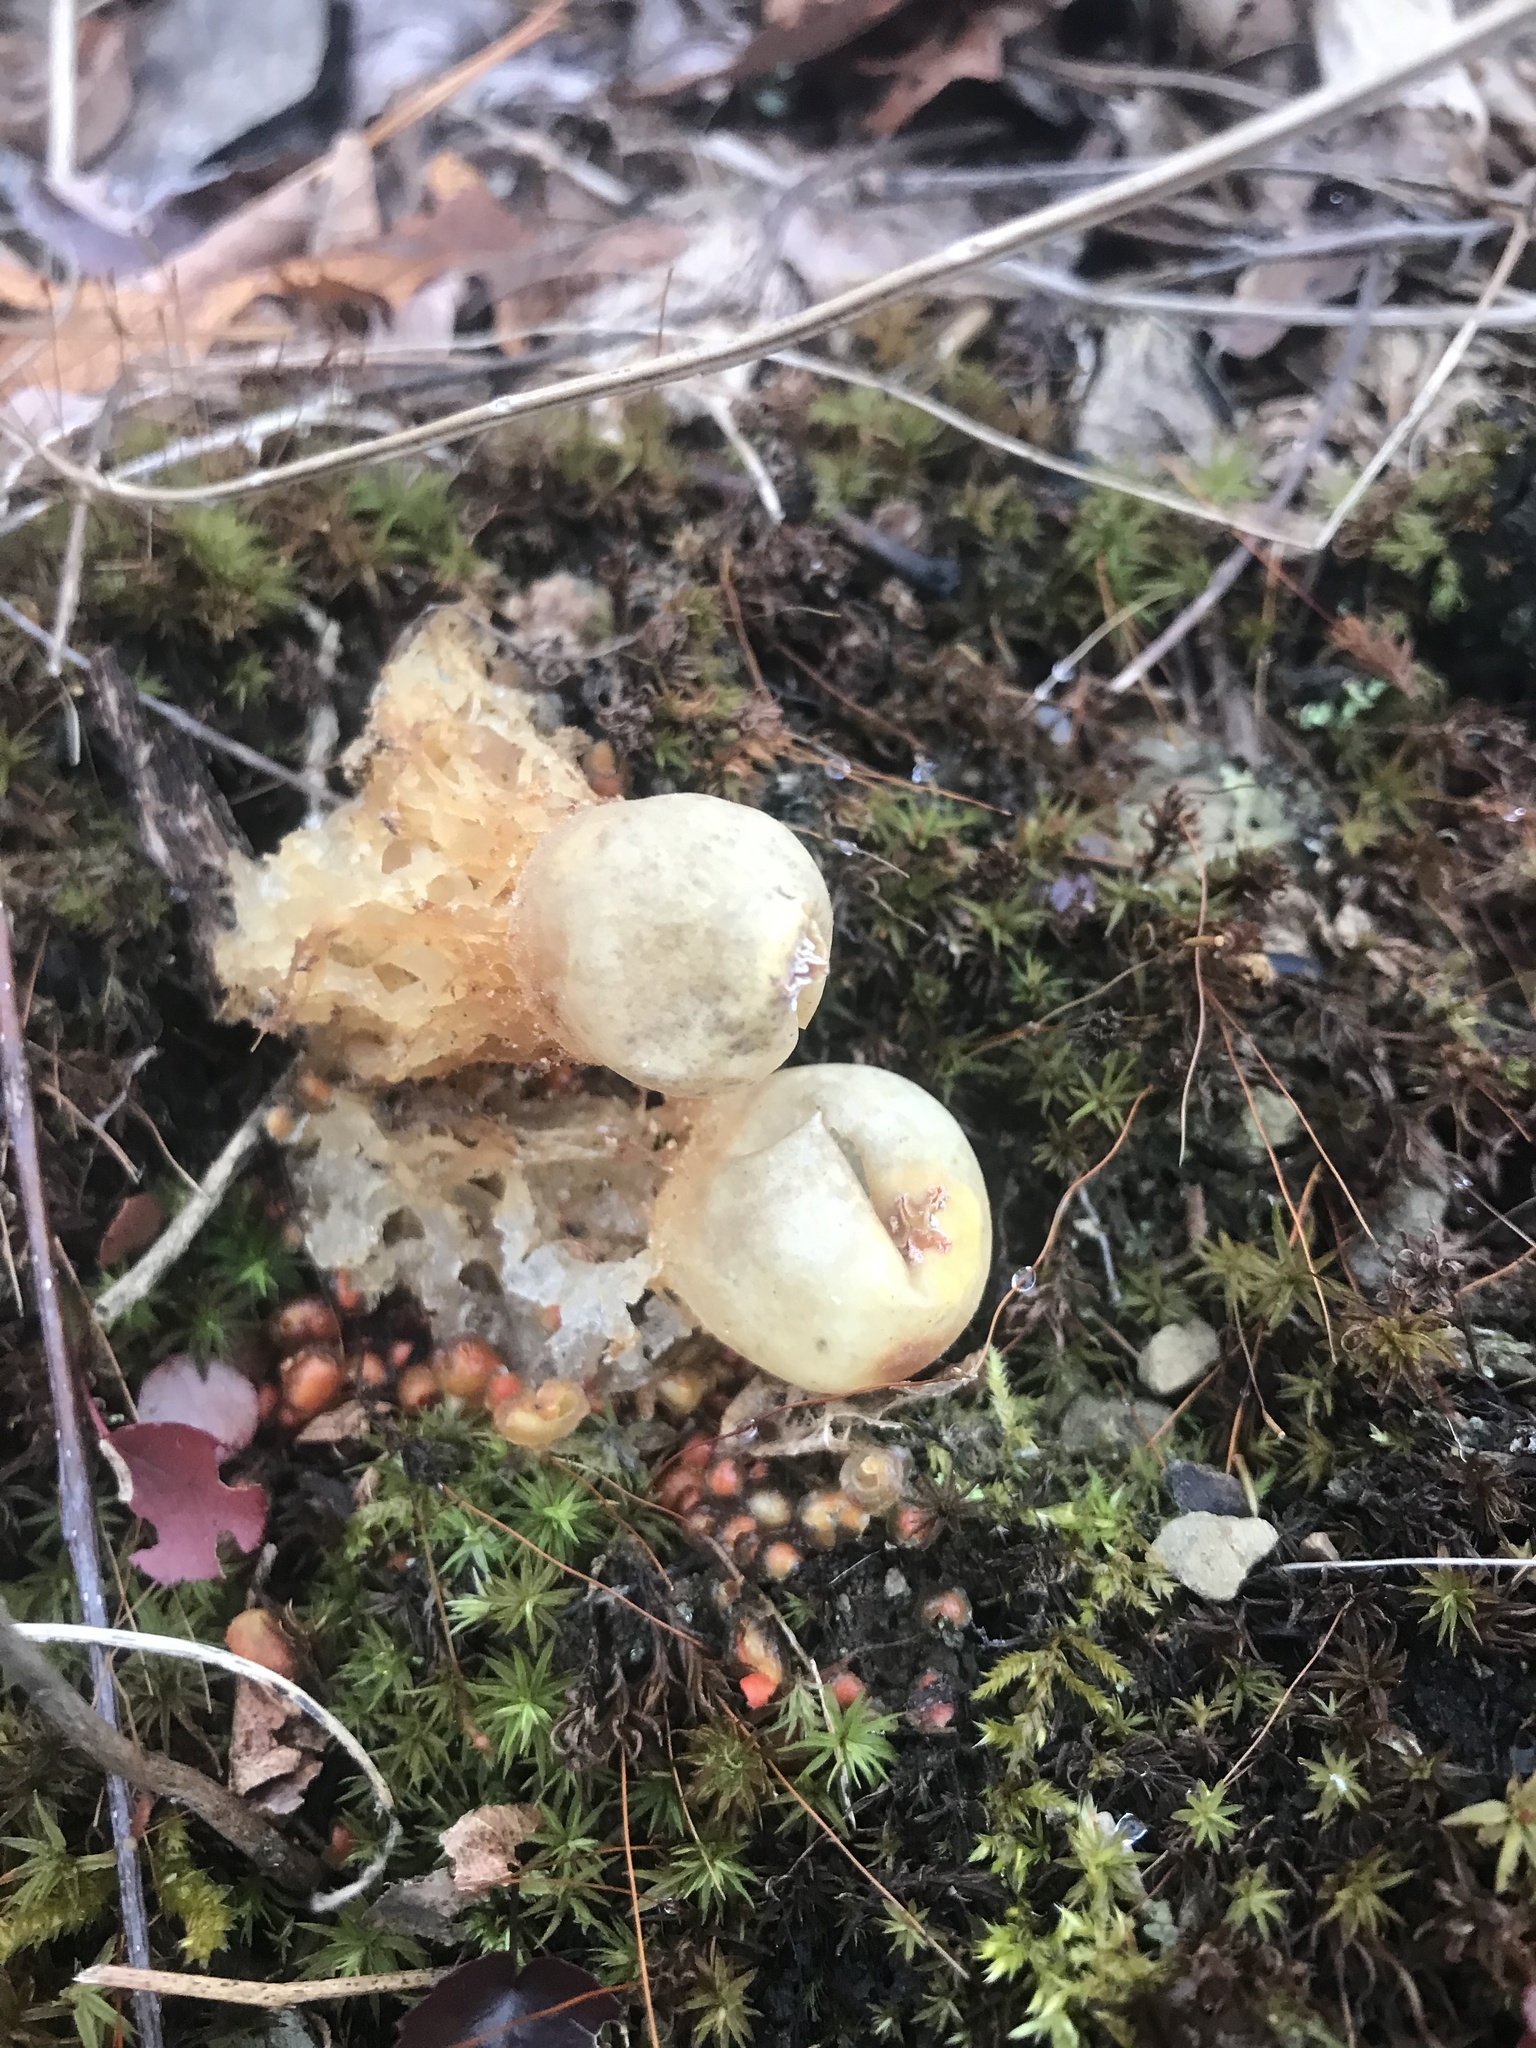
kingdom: Fungi
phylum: Basidiomycota
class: Agaricomycetes
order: Boletales
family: Calostomataceae
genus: Calostoma
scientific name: Calostoma lutescens
